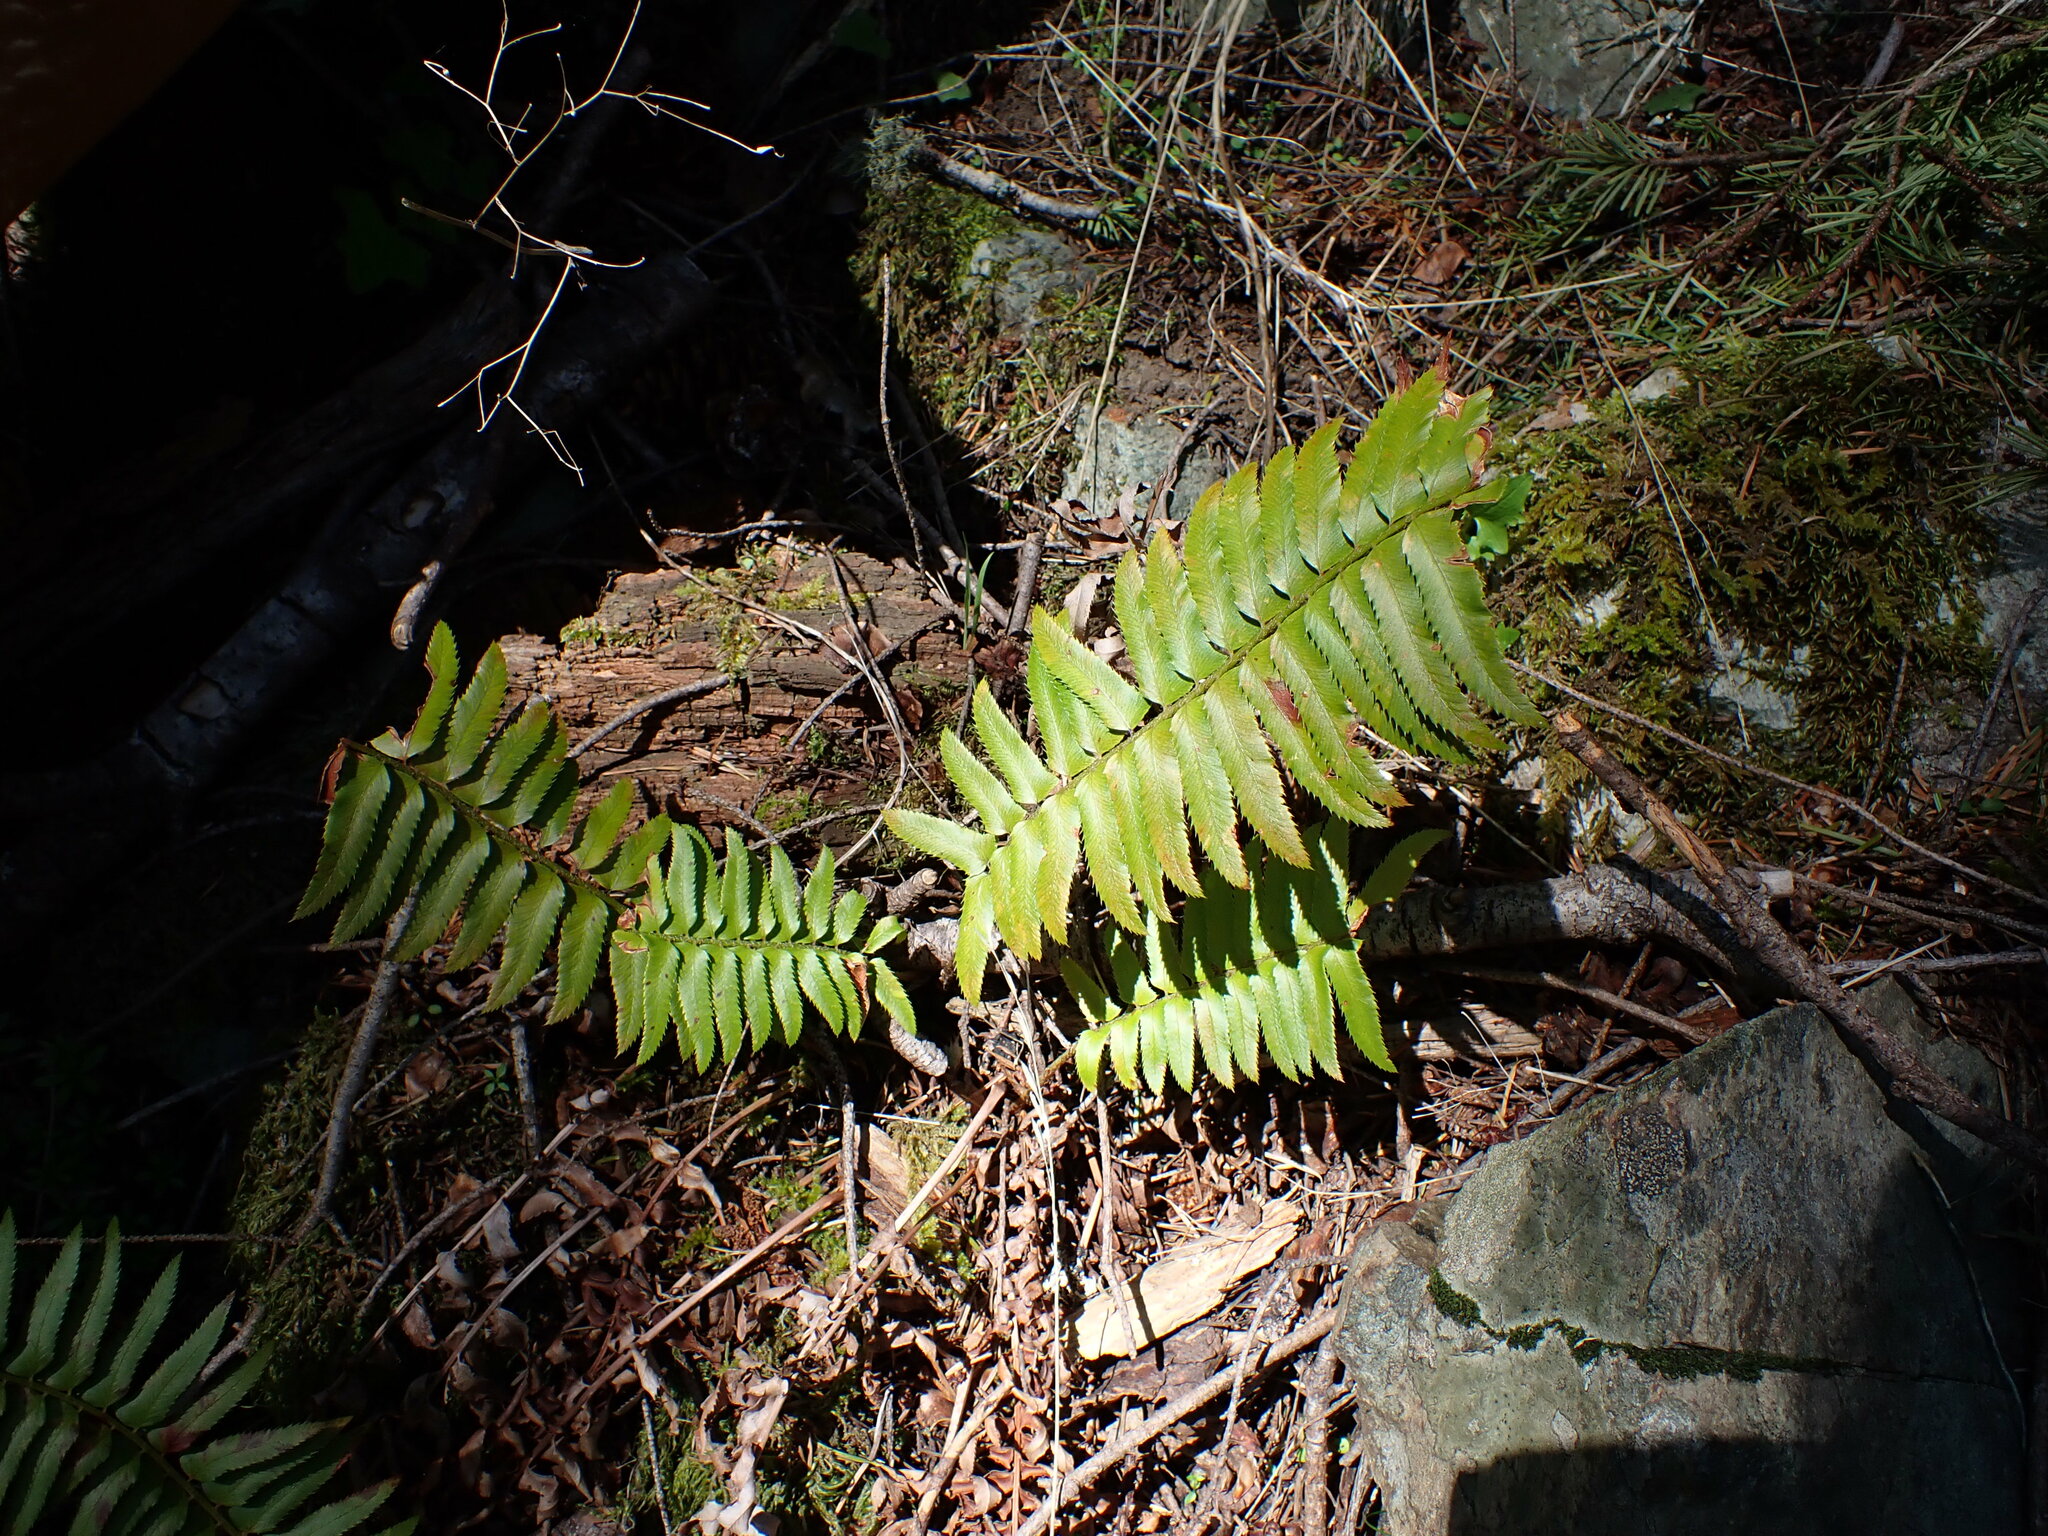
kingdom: Plantae
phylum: Tracheophyta
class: Polypodiopsida
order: Polypodiales
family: Dryopteridaceae
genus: Polystichum
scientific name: Polystichum munitum
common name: Western sword-fern
